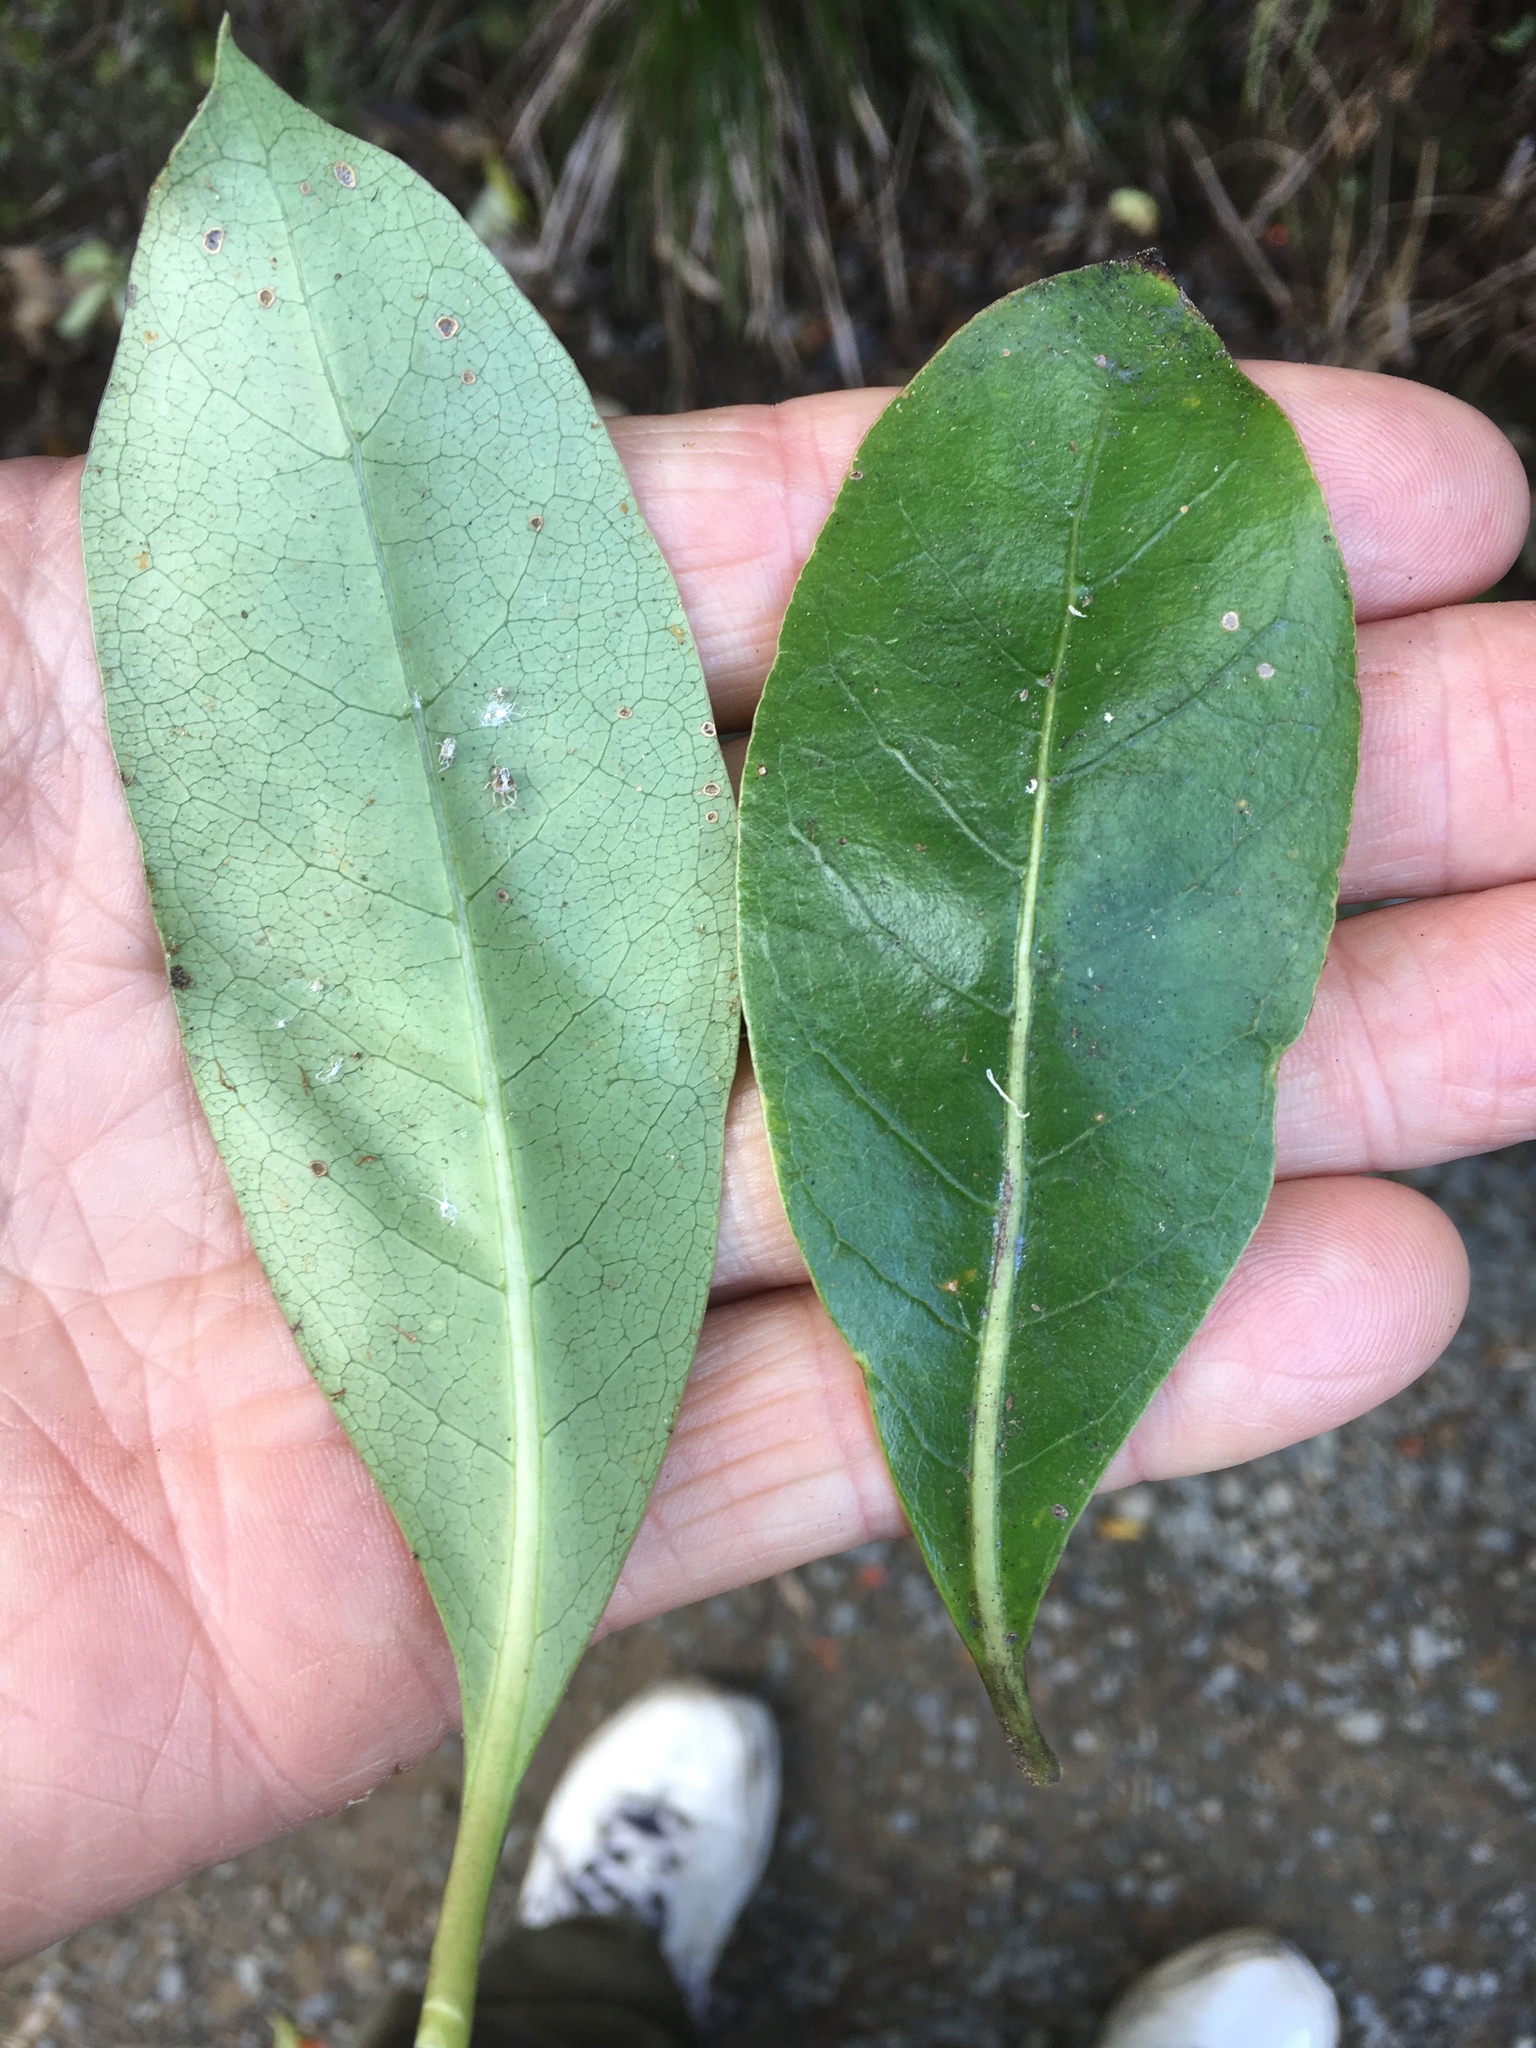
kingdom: Plantae
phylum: Tracheophyta
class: Magnoliopsida
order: Gentianales
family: Rubiaceae
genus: Coprosma
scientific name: Coprosma lucida
